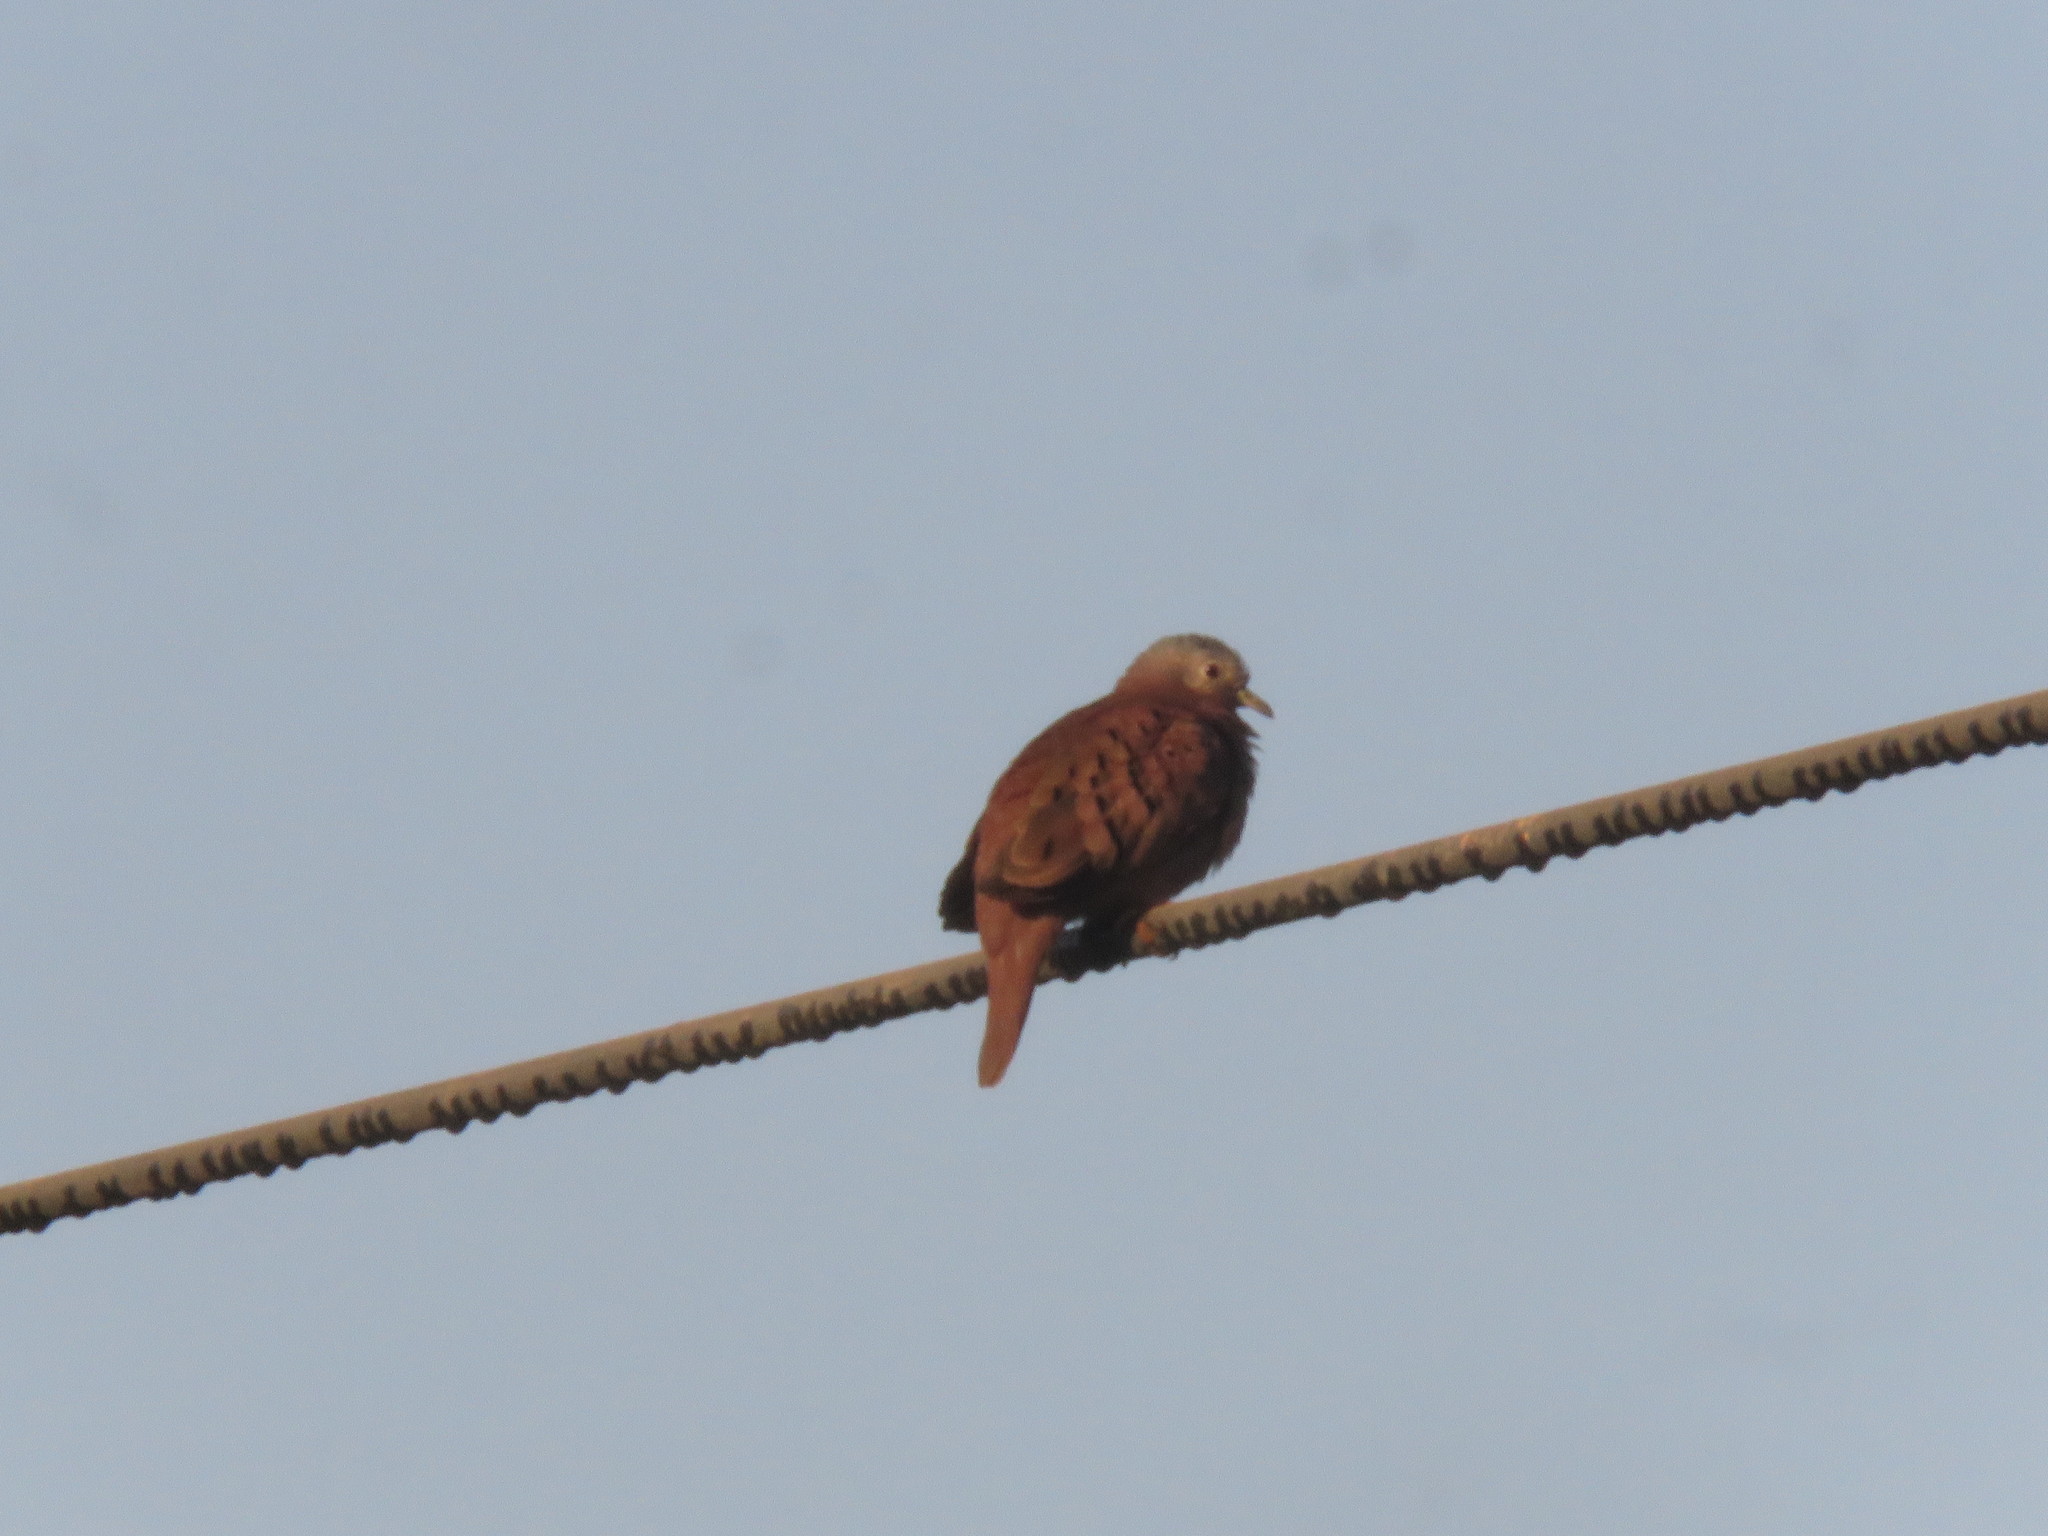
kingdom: Animalia
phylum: Chordata
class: Aves
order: Columbiformes
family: Columbidae
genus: Columbina
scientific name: Columbina talpacoti
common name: Ruddy ground dove
